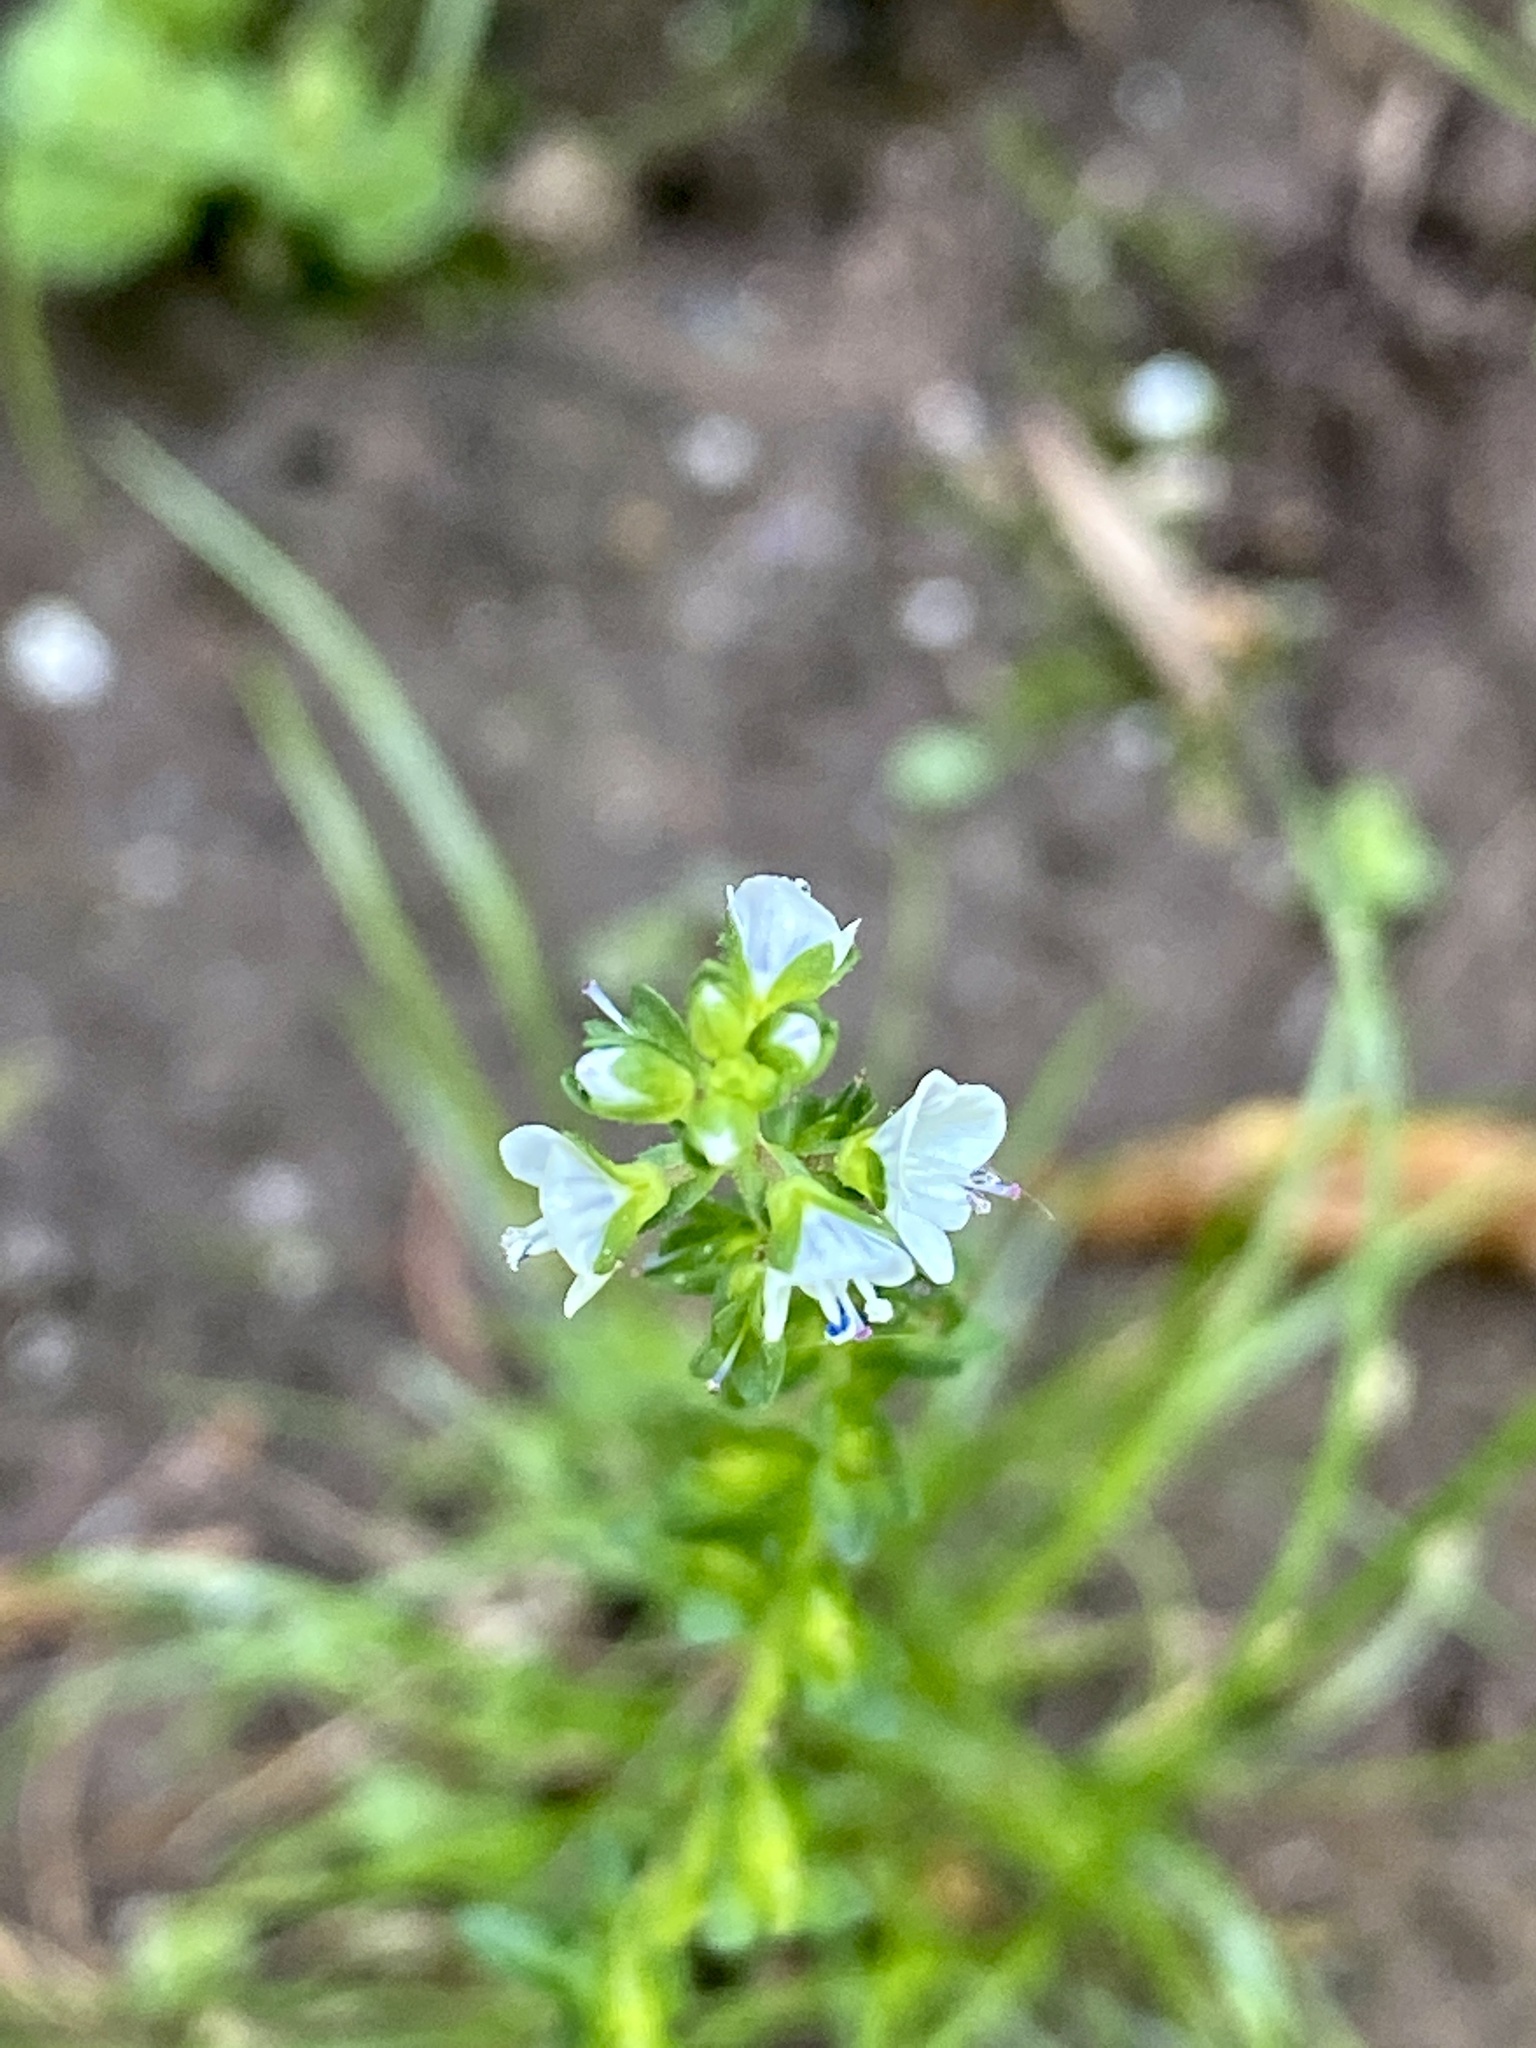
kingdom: Plantae
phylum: Tracheophyta
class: Magnoliopsida
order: Lamiales
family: Plantaginaceae
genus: Veronica
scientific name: Veronica serpyllifolia
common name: Thyme-leaved speedwell
